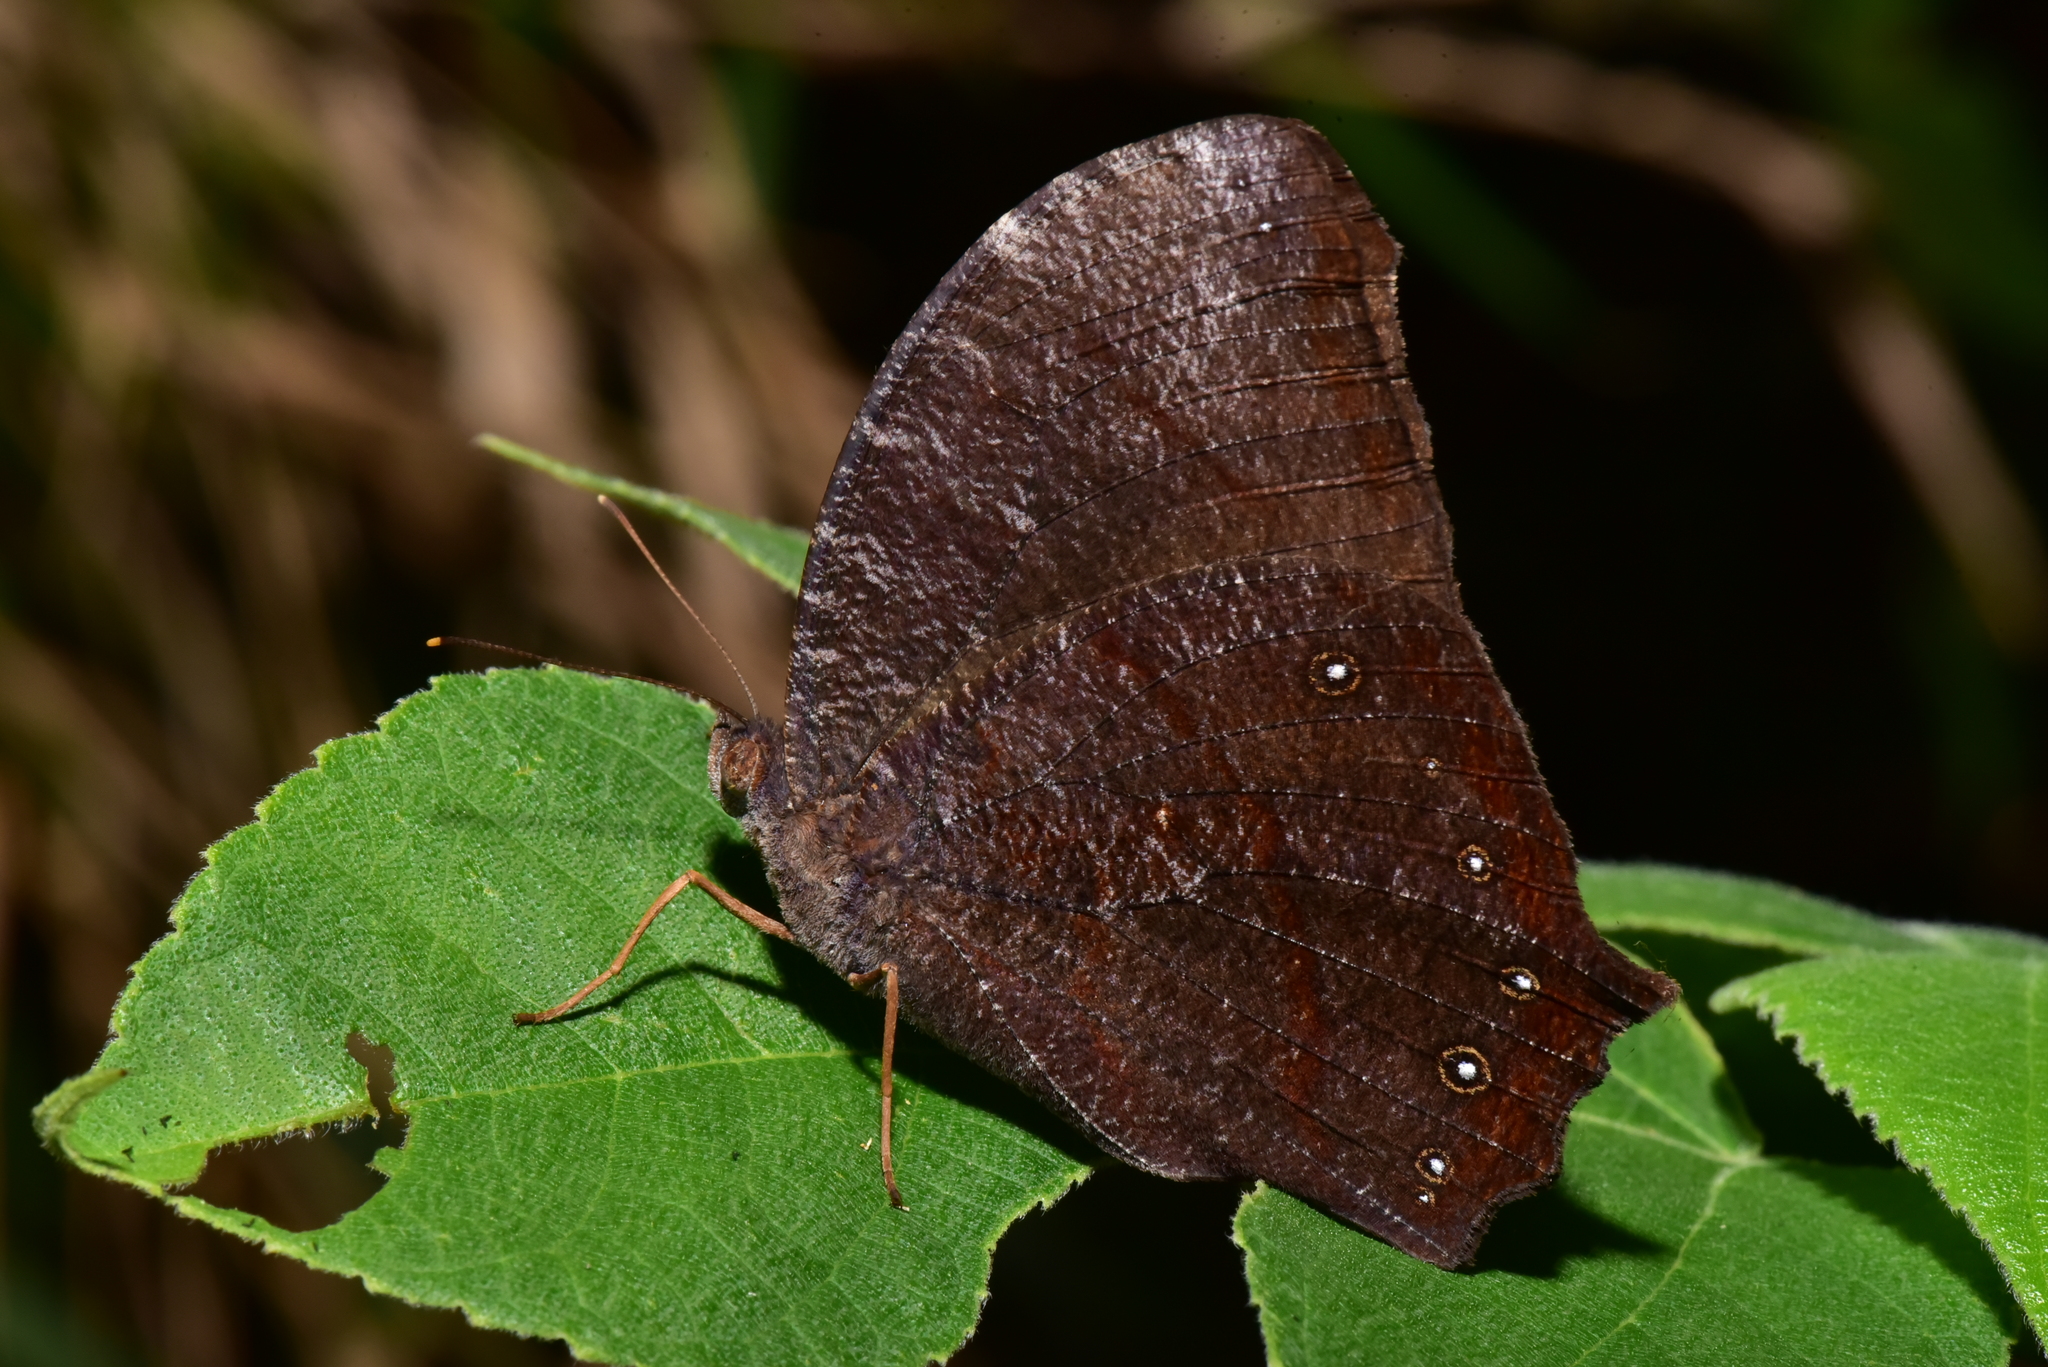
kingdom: Animalia
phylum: Arthropoda
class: Insecta
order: Lepidoptera
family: Nymphalidae
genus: Melanitis
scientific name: Melanitis phedima
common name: Dark evening brown
